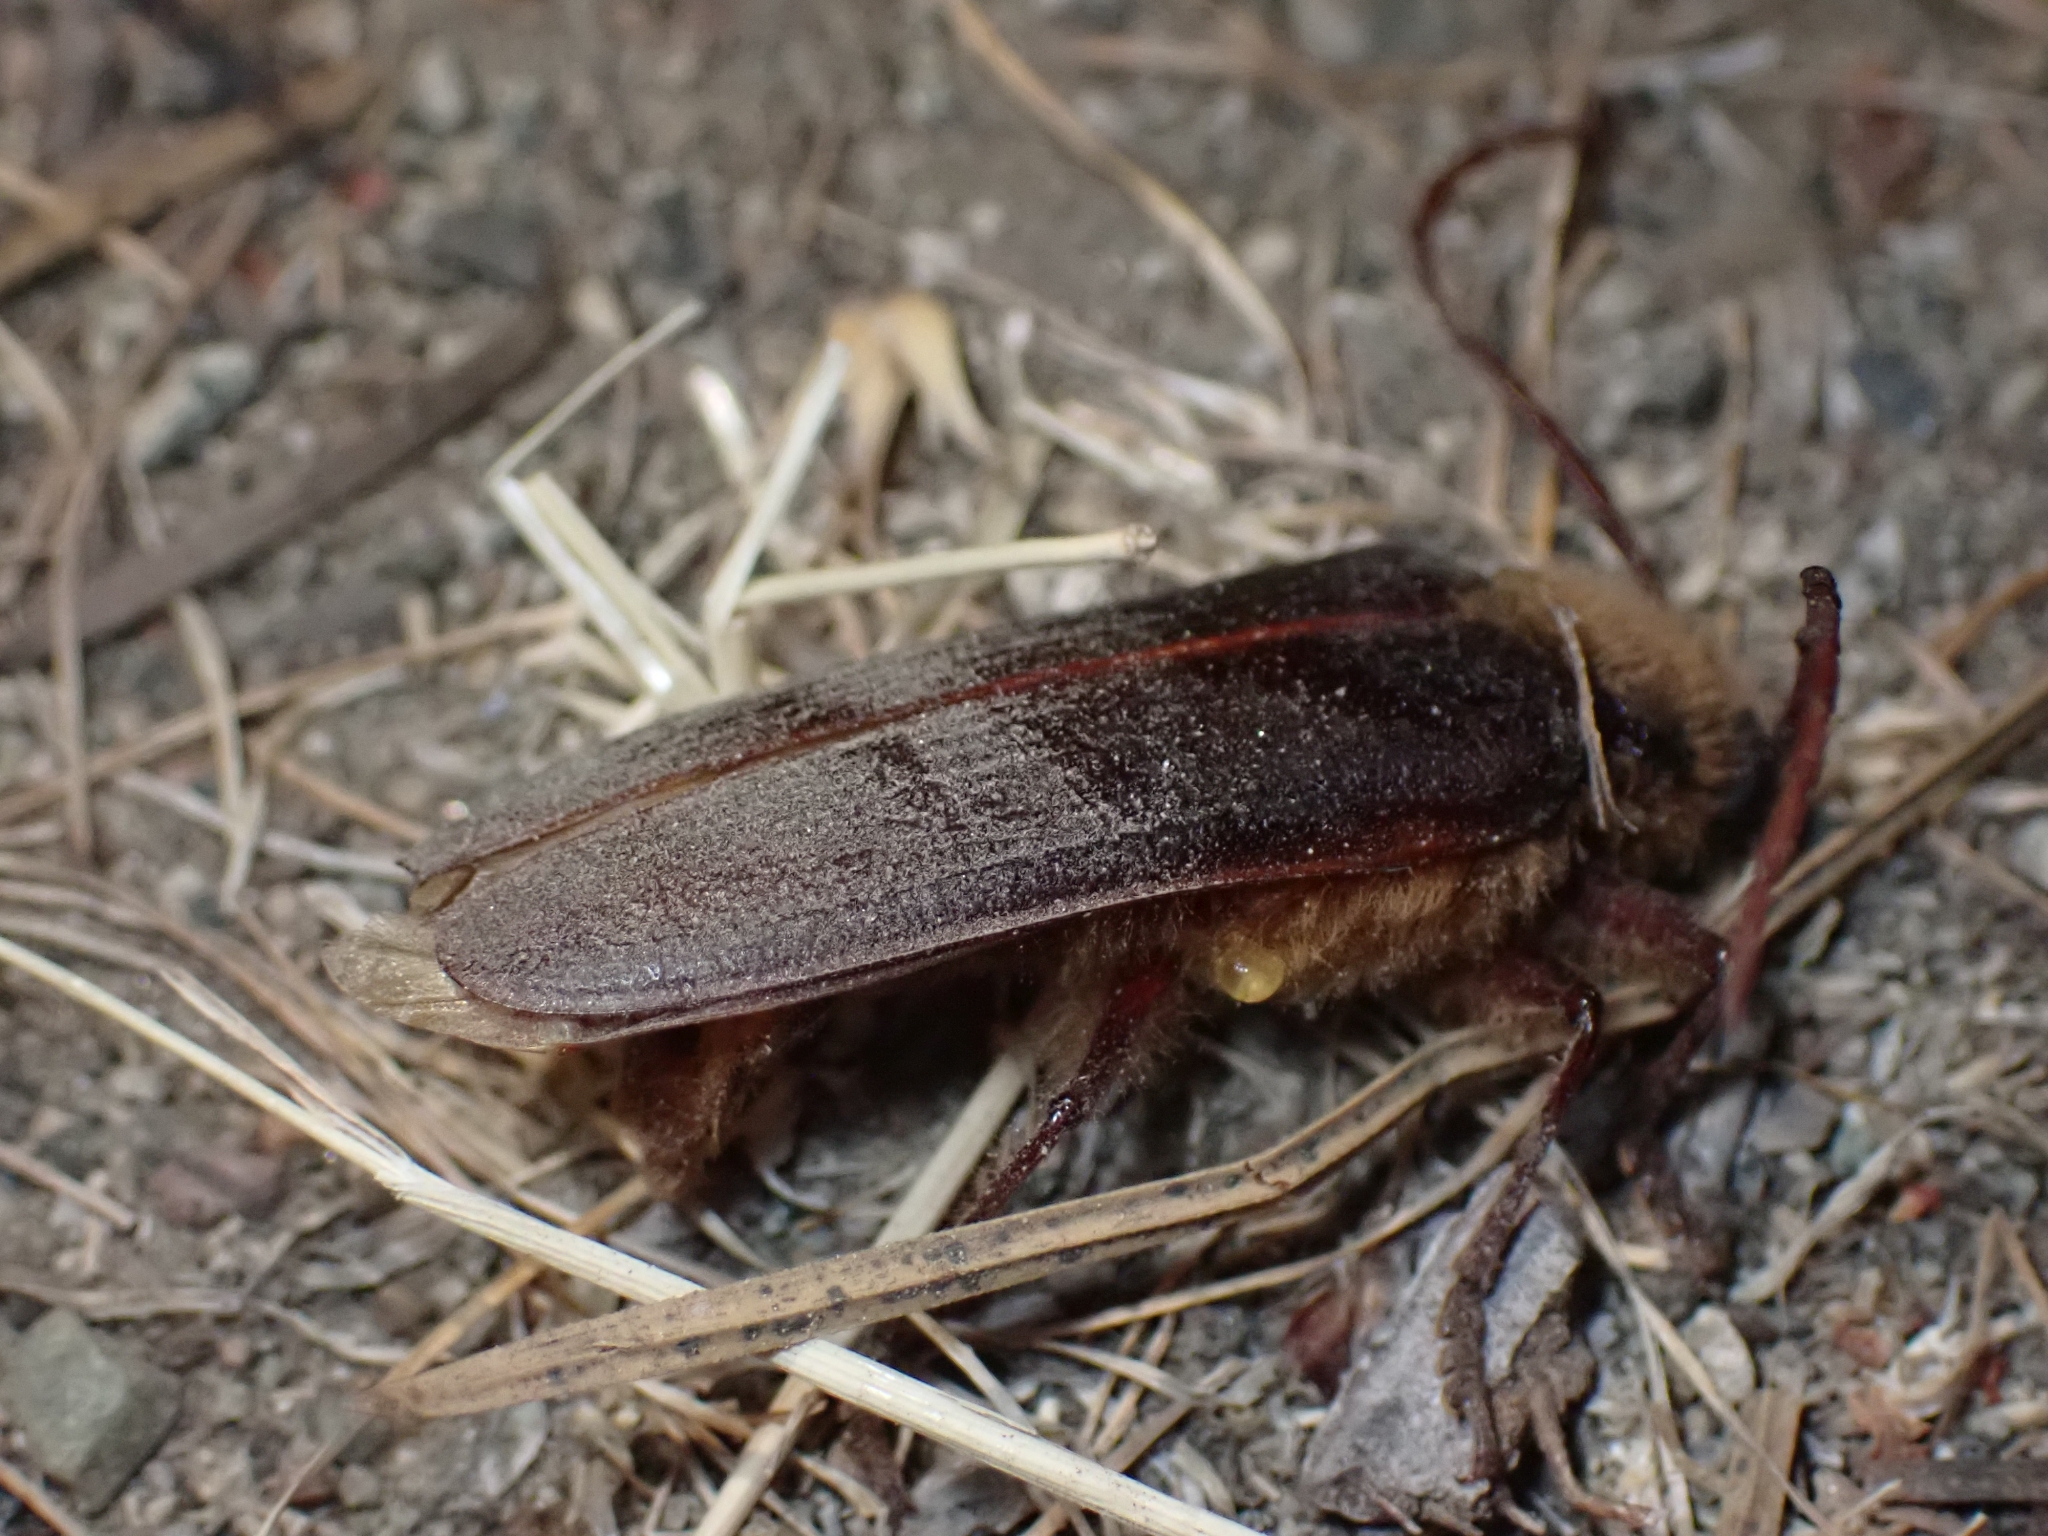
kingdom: Animalia
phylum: Arthropoda
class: Insecta
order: Coleoptera
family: Cerambycidae
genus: Tragosoma
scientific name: Tragosoma harrisii
